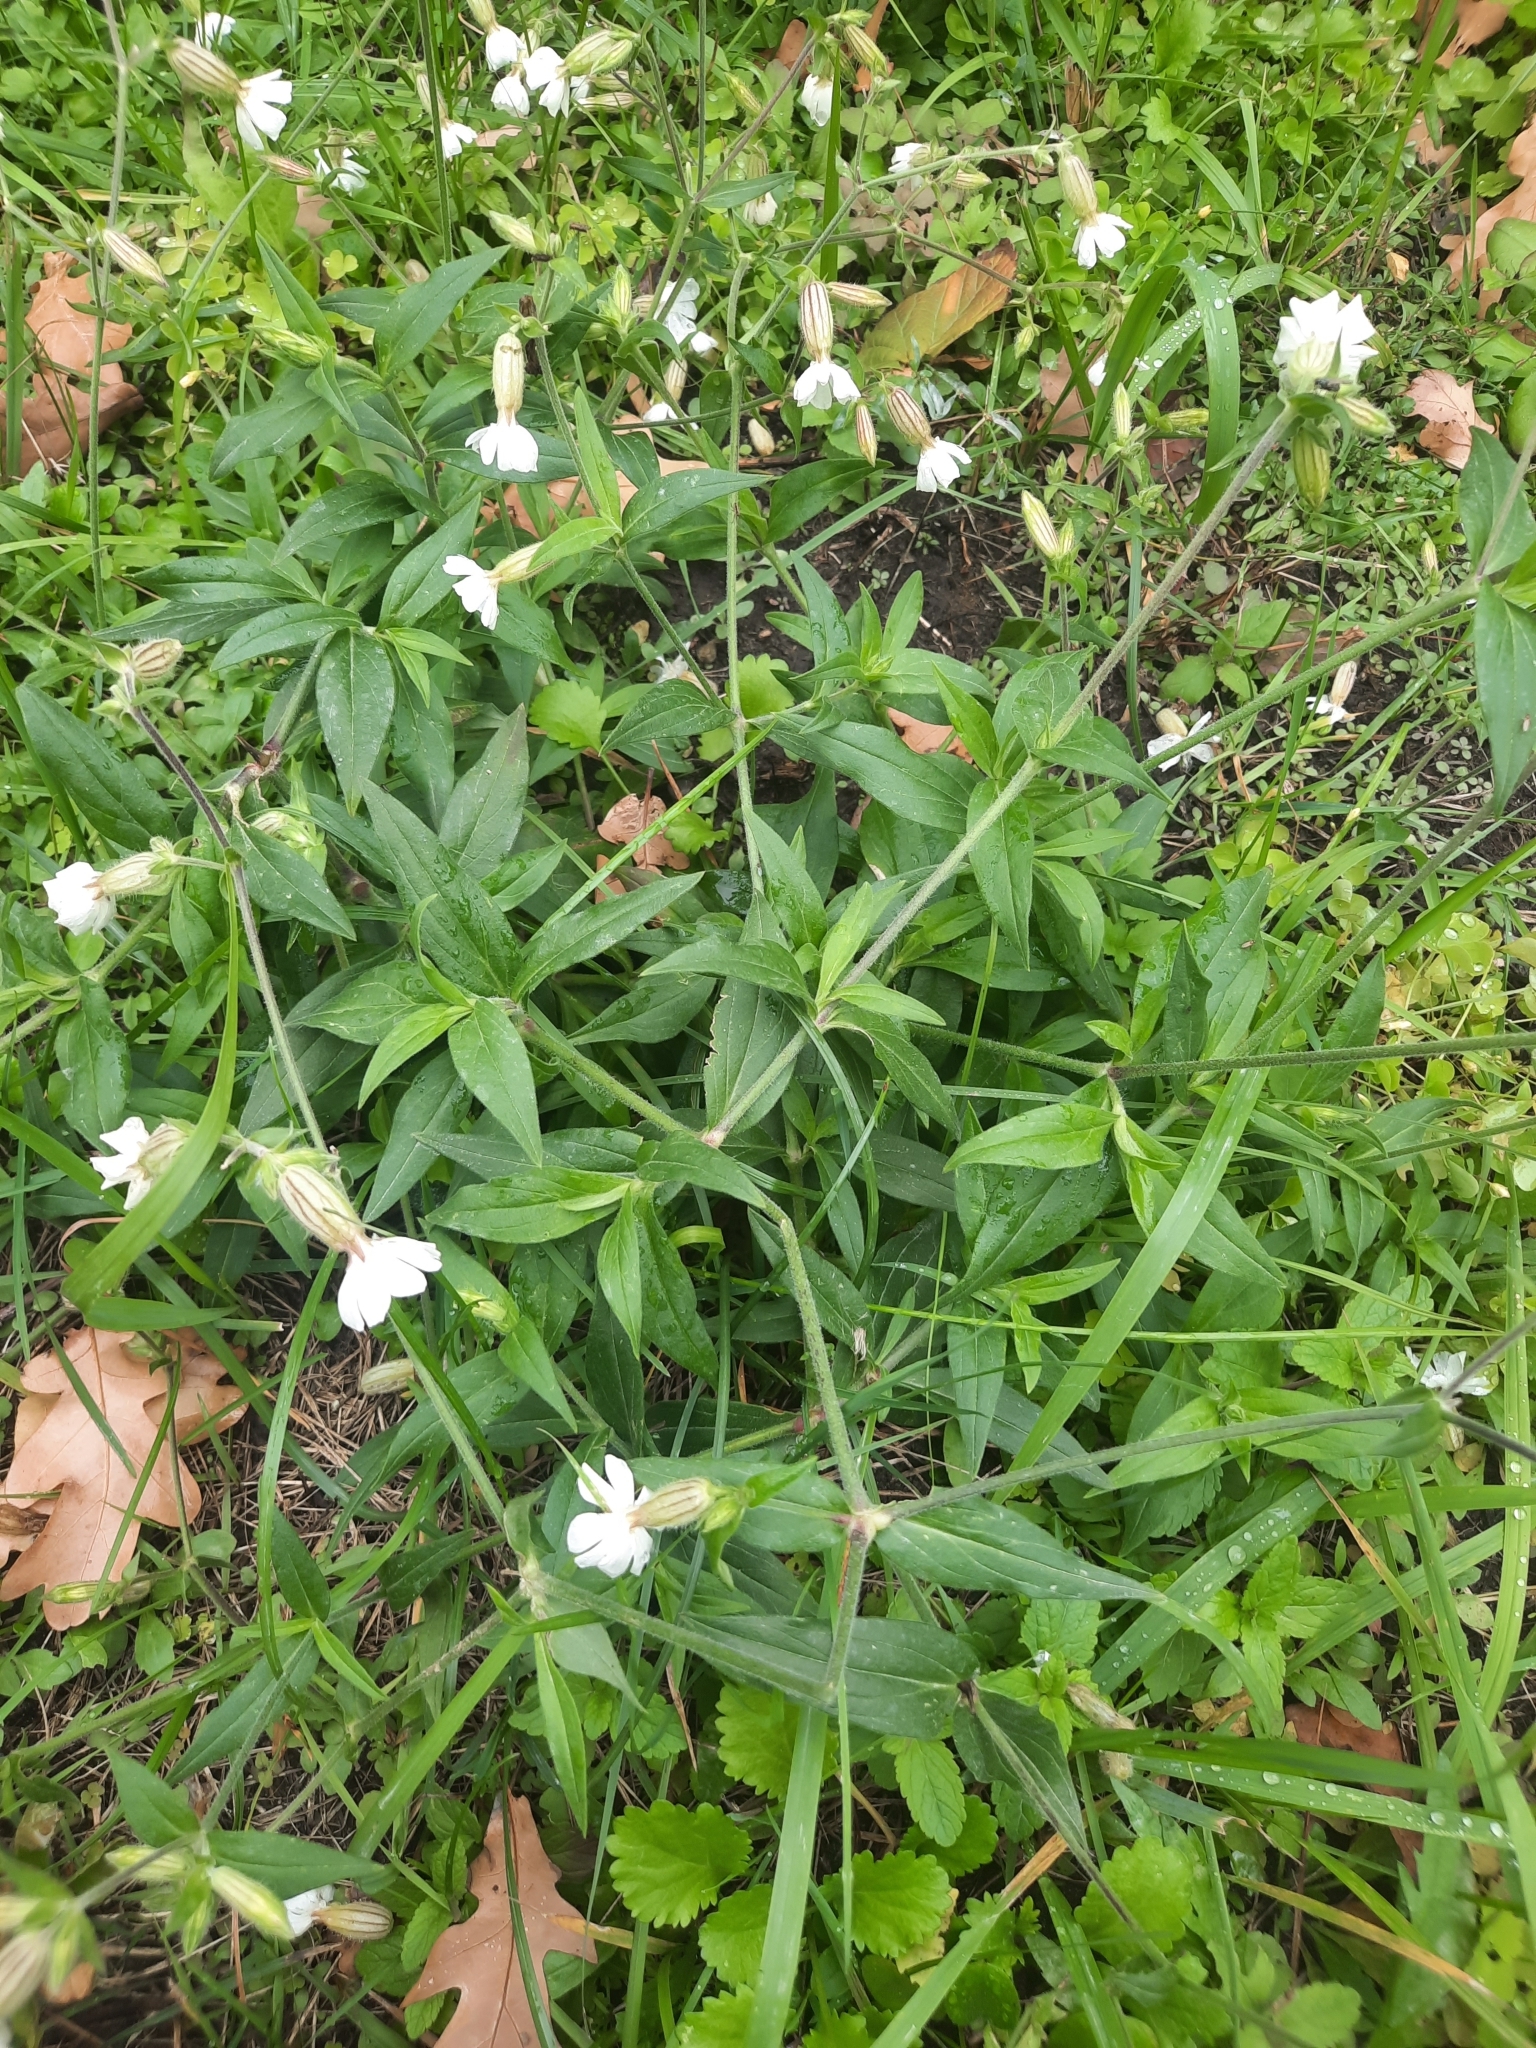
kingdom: Plantae
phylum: Tracheophyta
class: Magnoliopsida
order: Caryophyllales
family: Caryophyllaceae
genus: Silene
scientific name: Silene latifolia
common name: White campion
